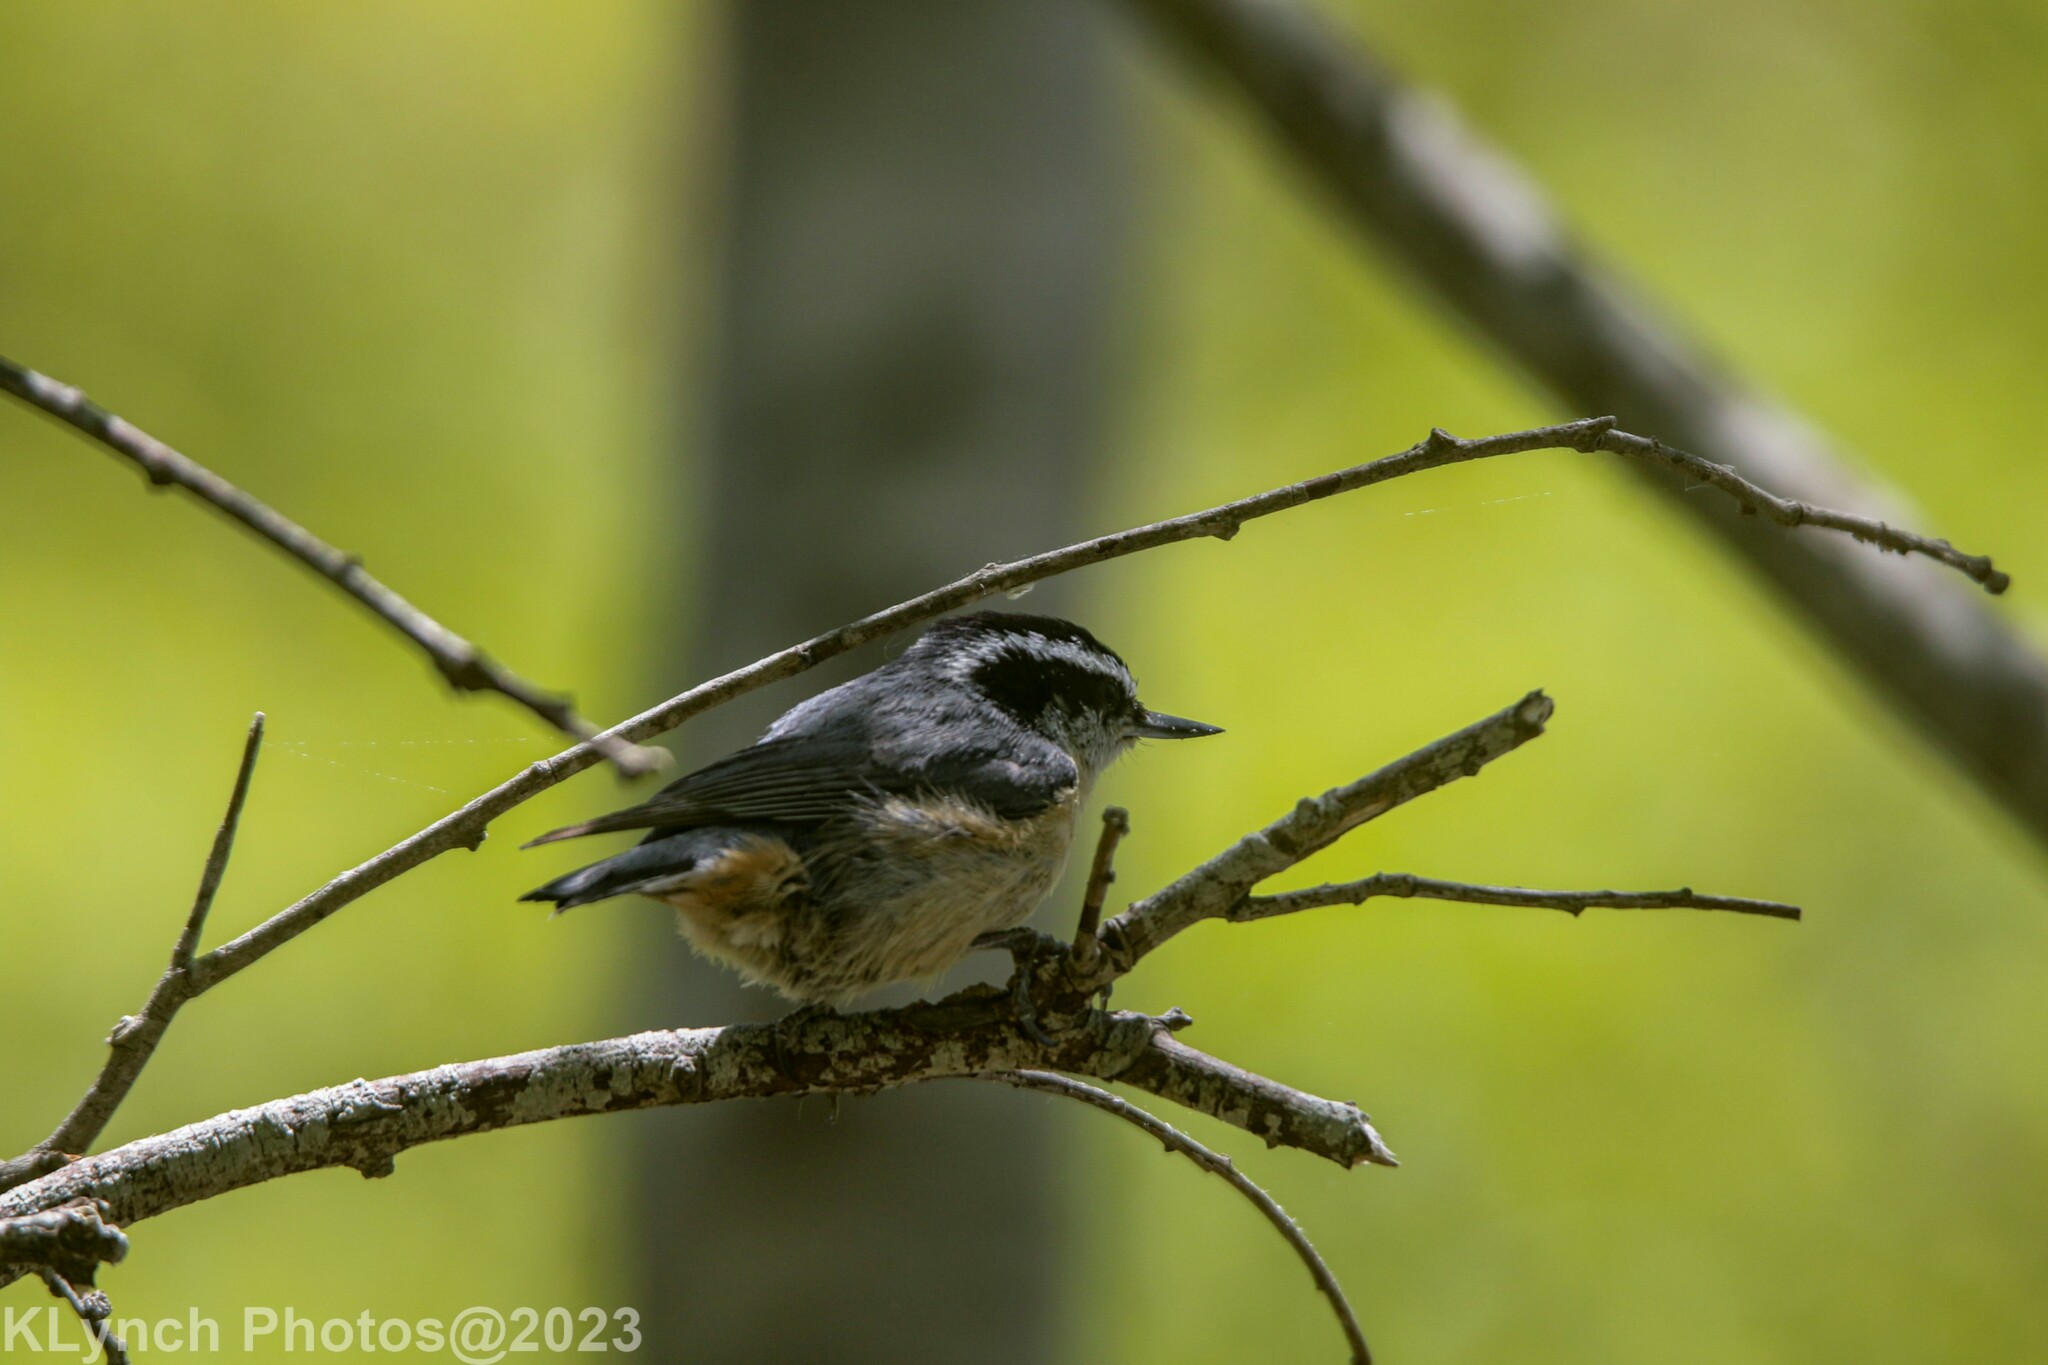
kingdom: Animalia
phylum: Chordata
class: Aves
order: Passeriformes
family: Sittidae
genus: Sitta
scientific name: Sitta canadensis
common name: Red-breasted nuthatch
